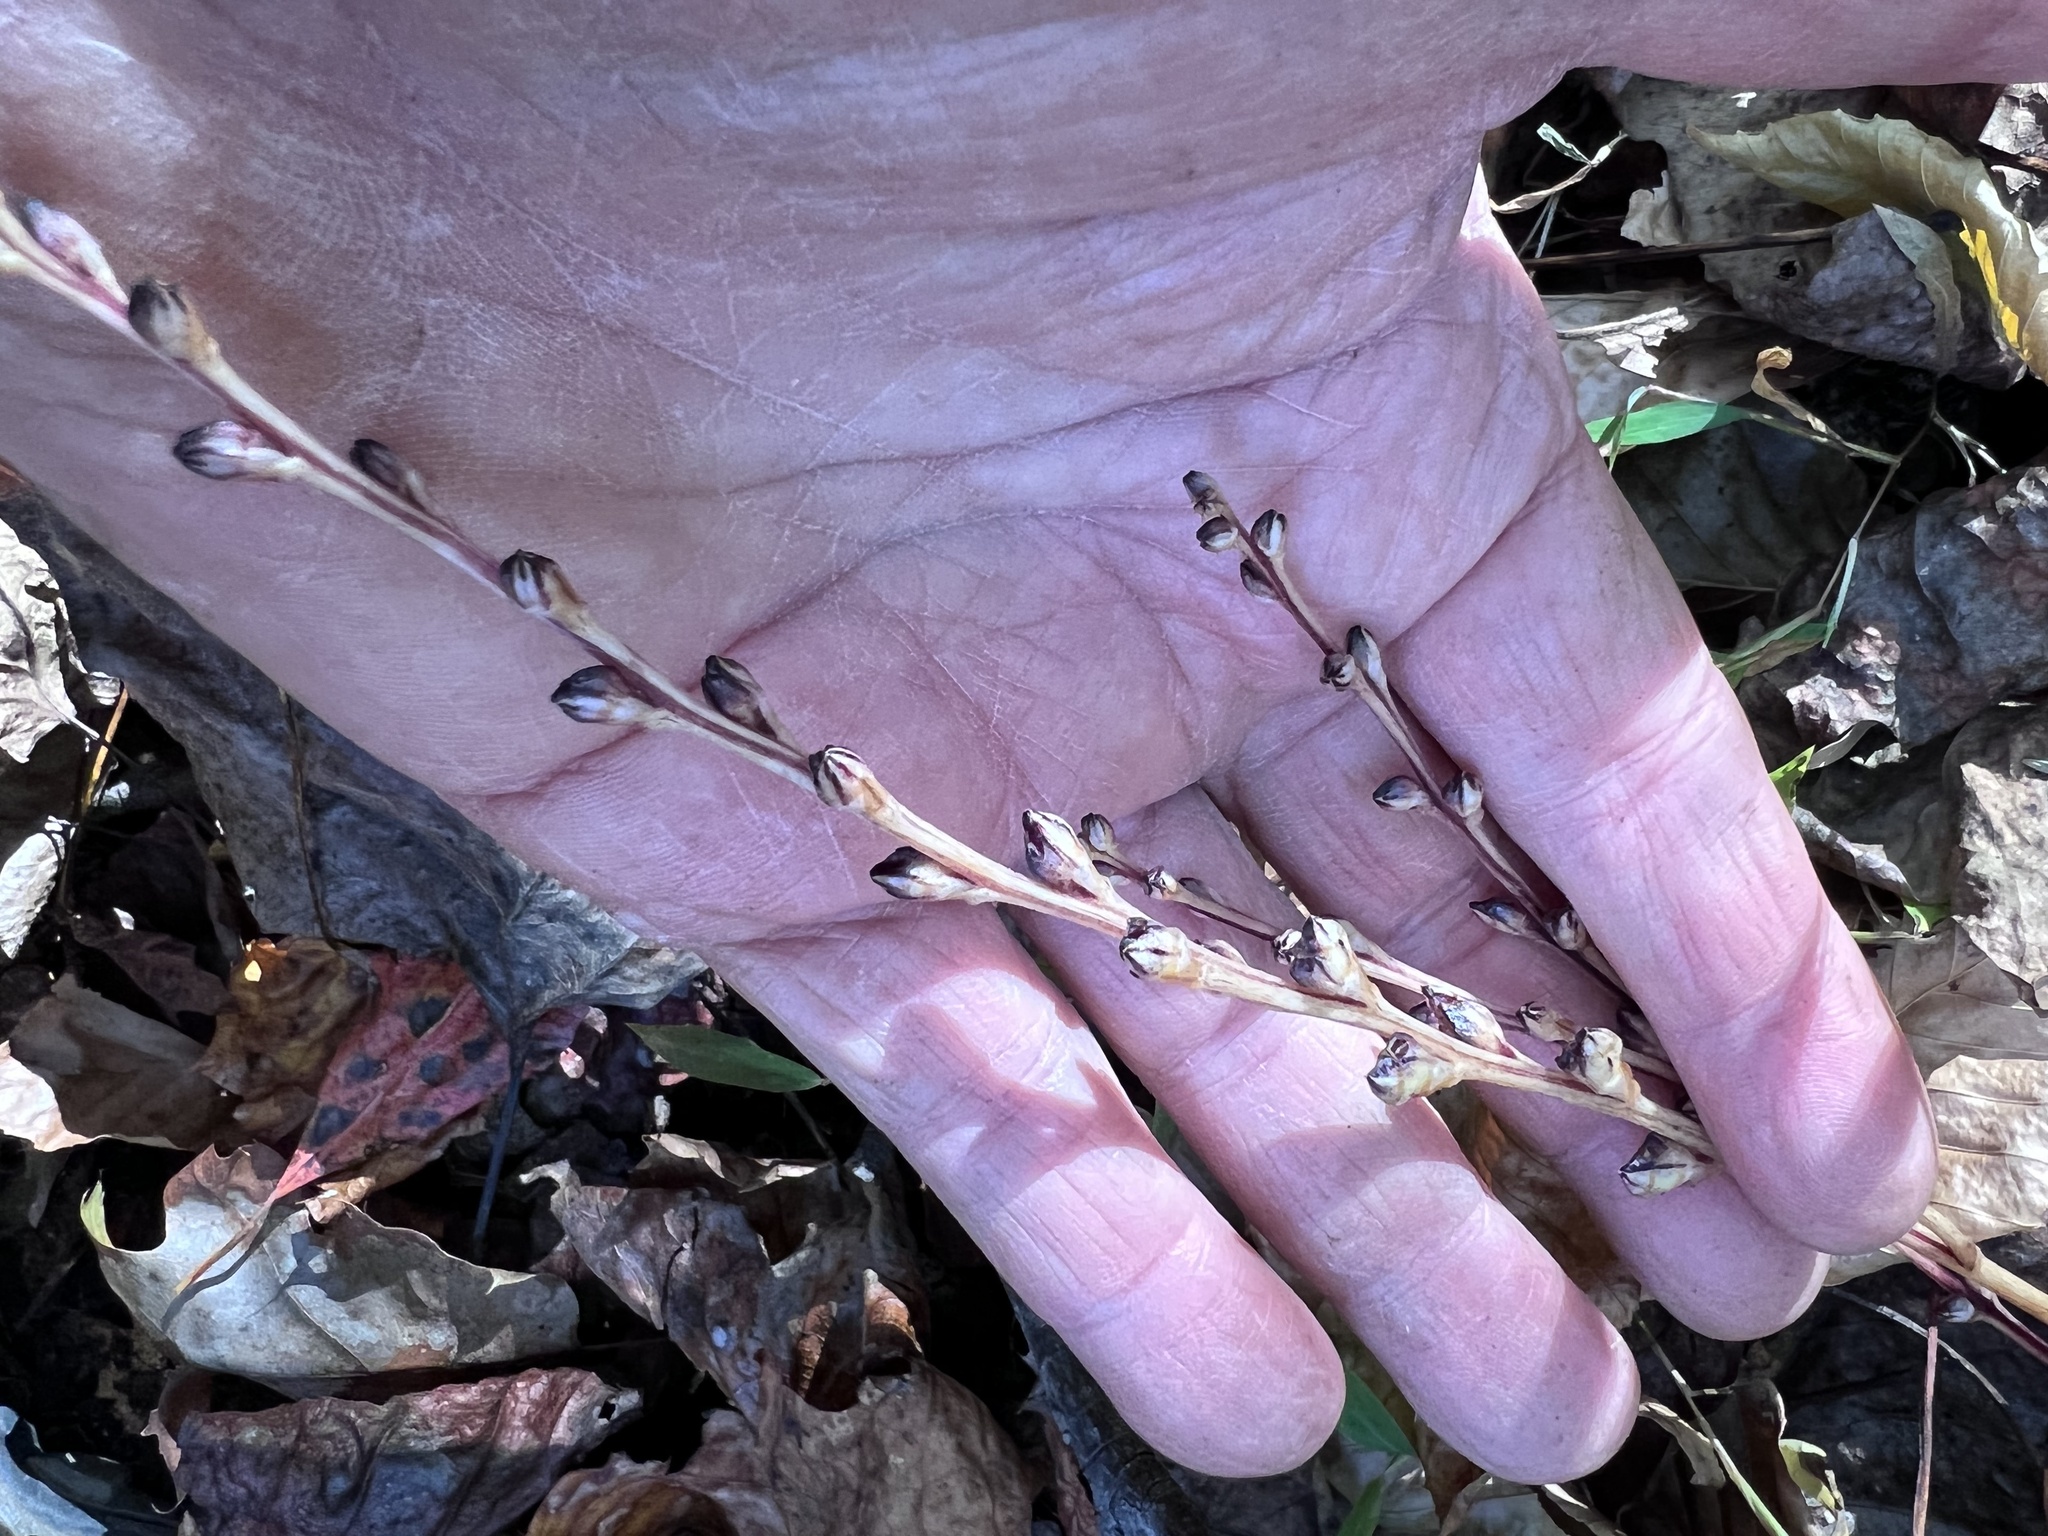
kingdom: Plantae
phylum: Tracheophyta
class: Magnoliopsida
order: Lamiales
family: Orobanchaceae
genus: Epifagus
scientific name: Epifagus virginiana
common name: Beechdrops
